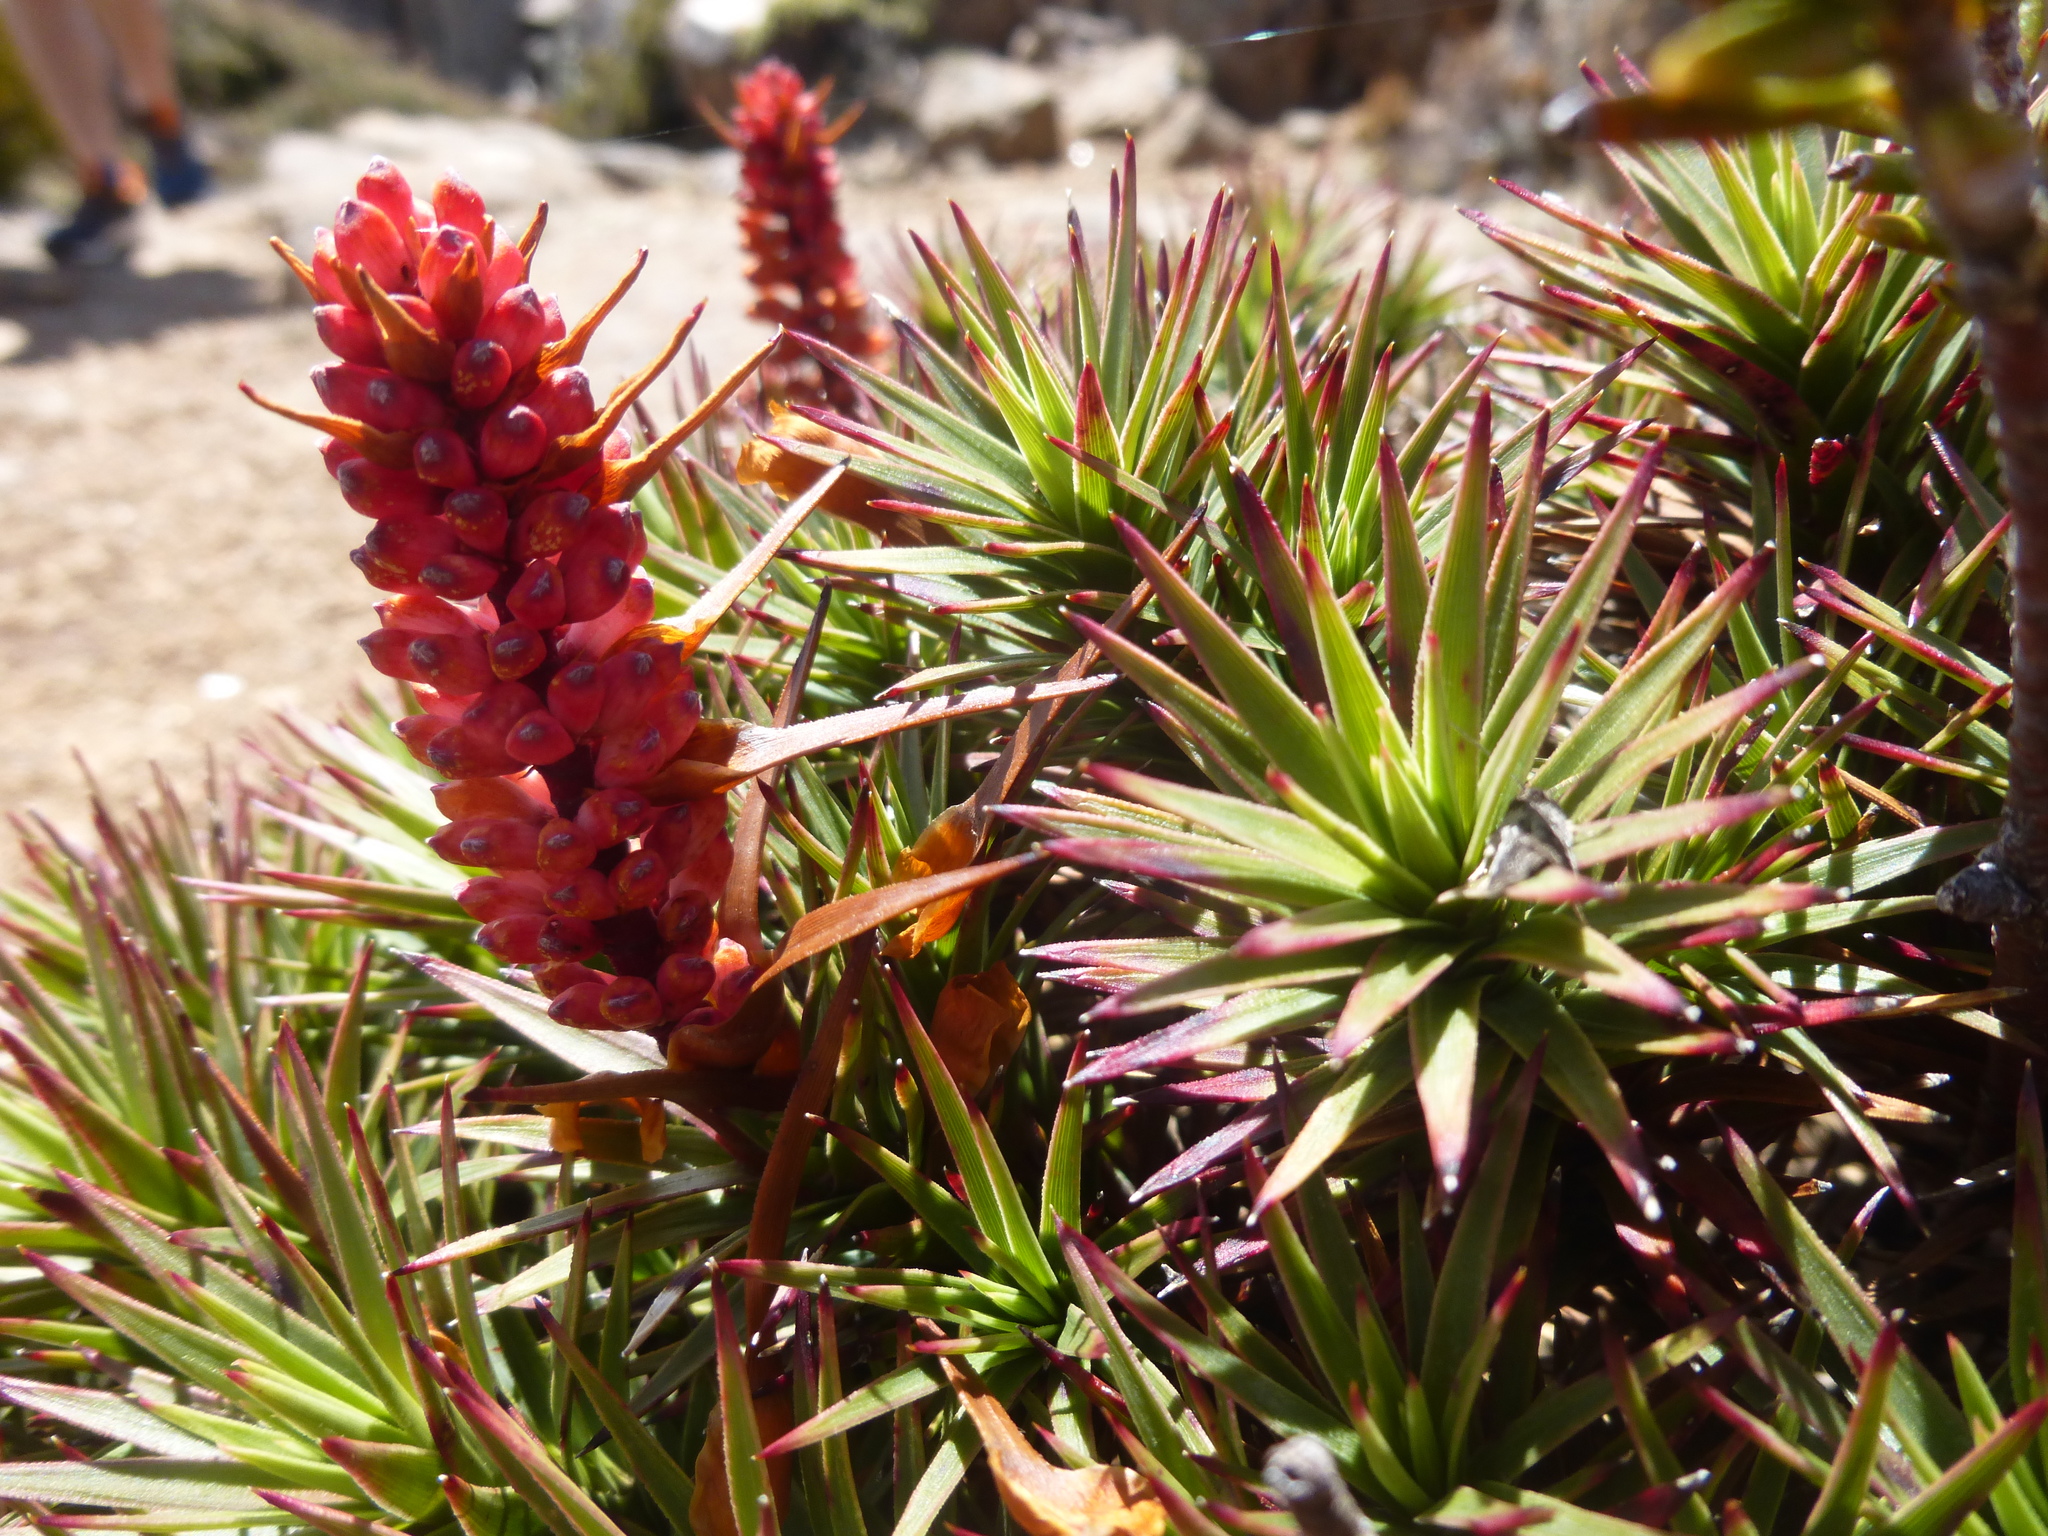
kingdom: Plantae
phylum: Tracheophyta
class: Magnoliopsida
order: Ericales
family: Ericaceae
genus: Dracophyllum
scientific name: Dracophyllum persistentifolium
